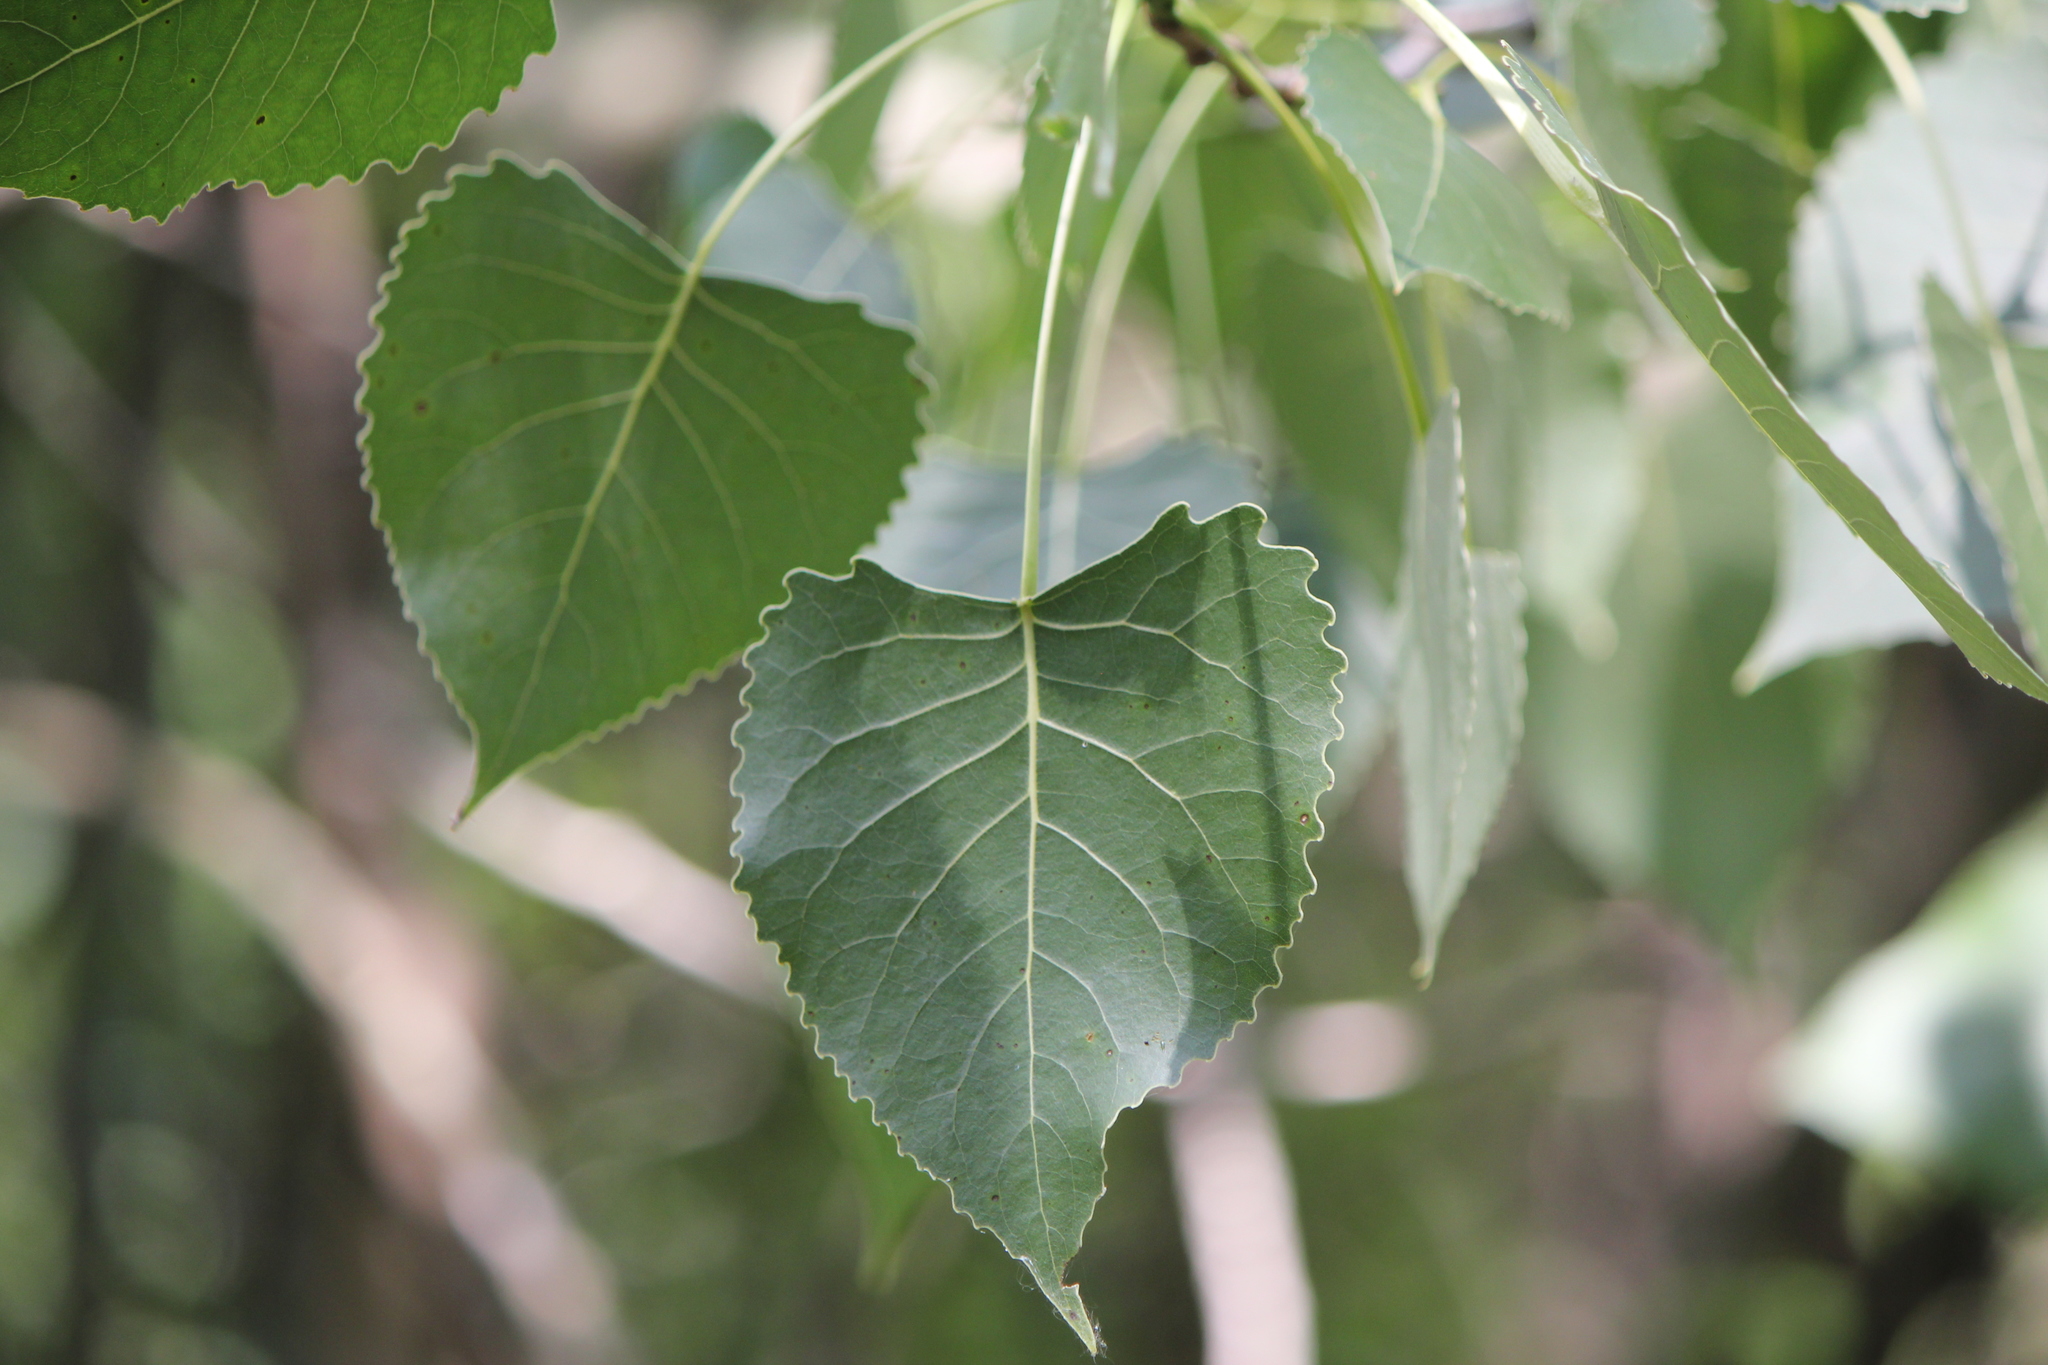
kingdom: Plantae
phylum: Tracheophyta
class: Magnoliopsida
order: Malpighiales
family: Salicaceae
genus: Populus
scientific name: Populus deltoides
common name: Eastern cottonwood
